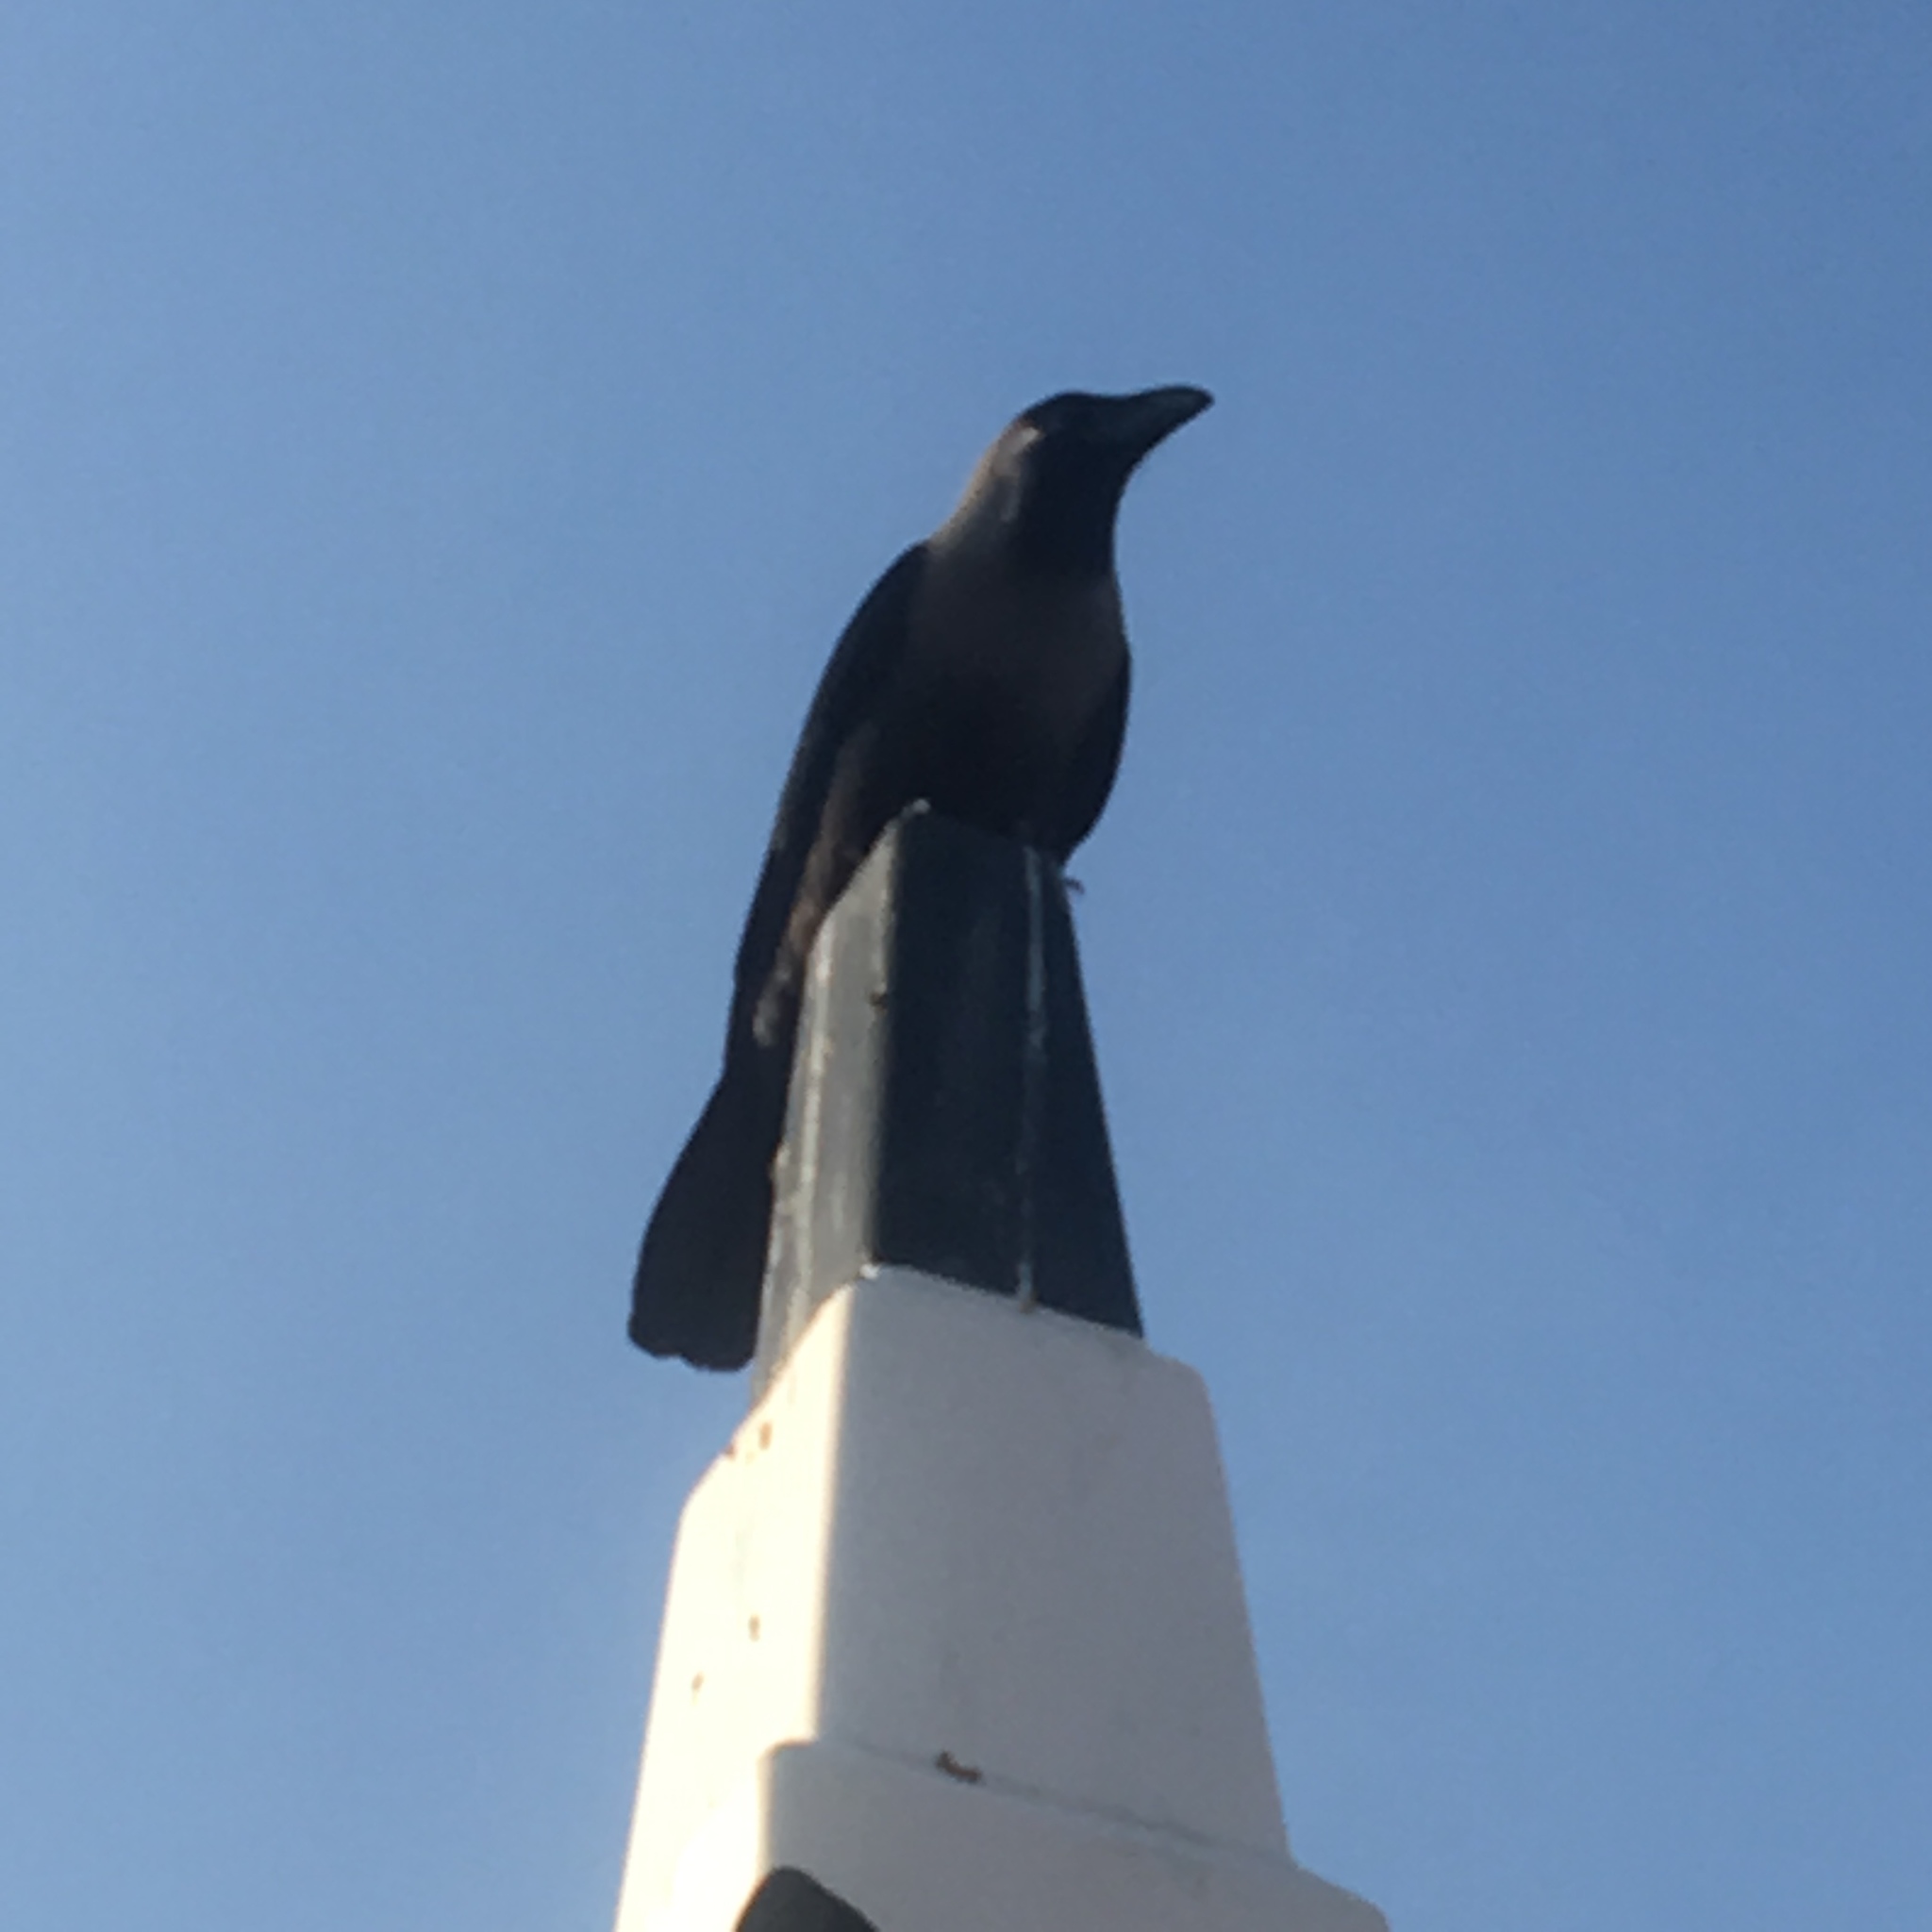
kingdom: Animalia
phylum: Chordata
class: Aves
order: Passeriformes
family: Corvidae
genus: Corvus
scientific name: Corvus splendens
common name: House crow
